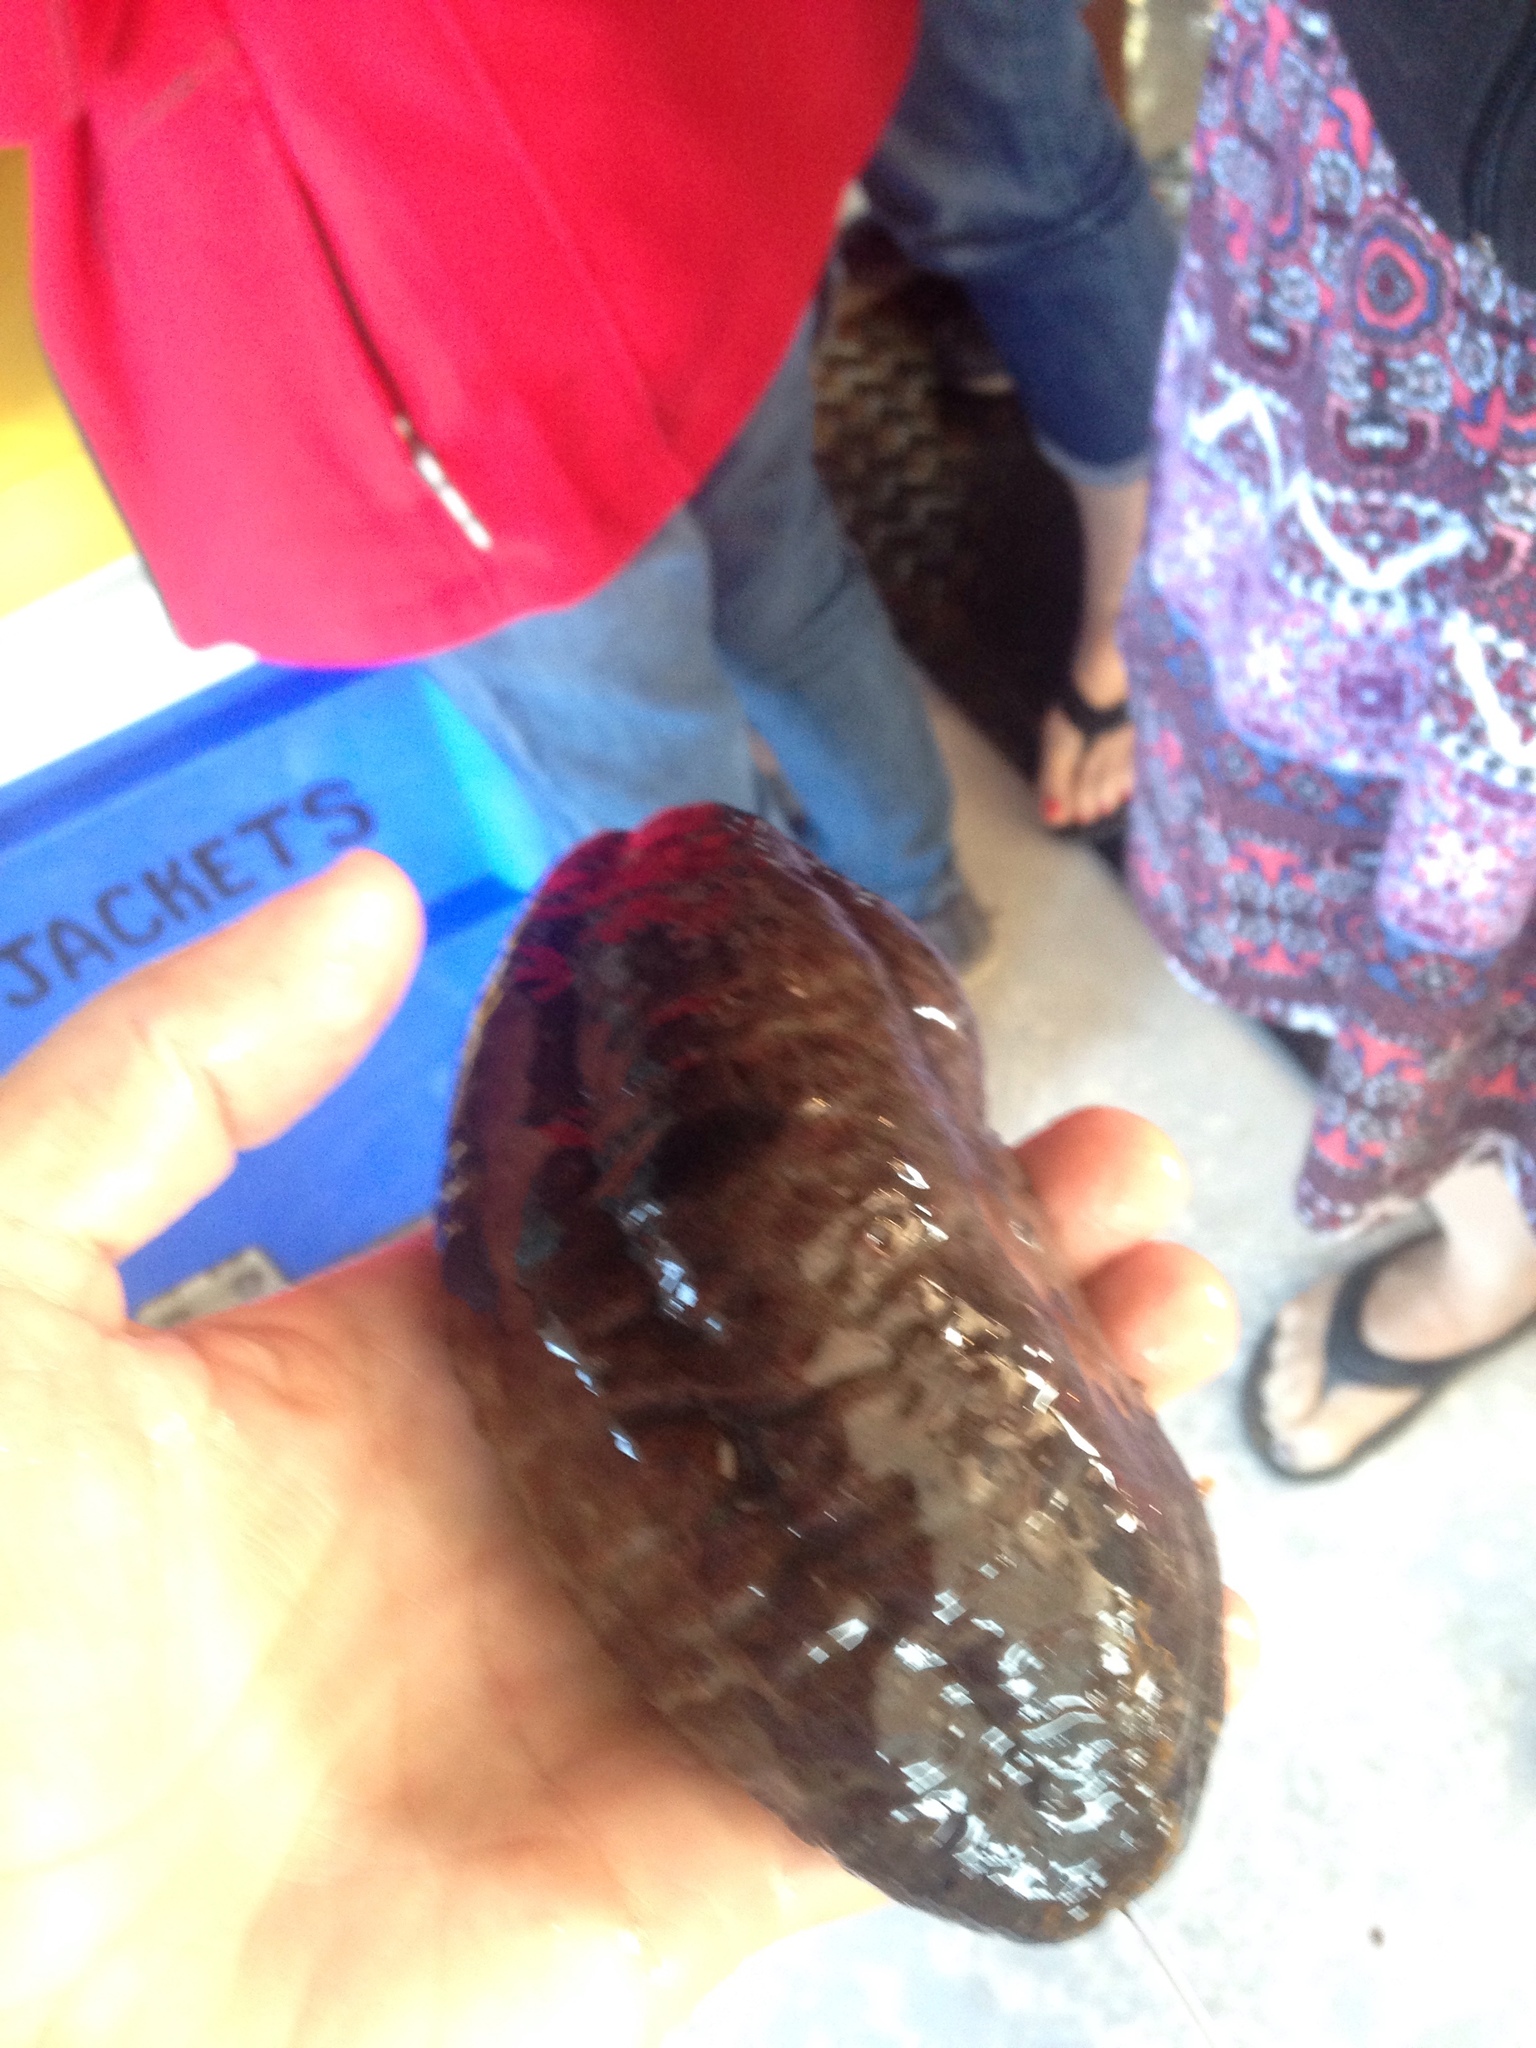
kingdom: Animalia
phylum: Echinodermata
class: Holothuroidea
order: Dendrochirotida
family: Cucumariidae
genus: Cucumaria
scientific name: Cucumaria frondosa
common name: Orange-footed sea cucumber
